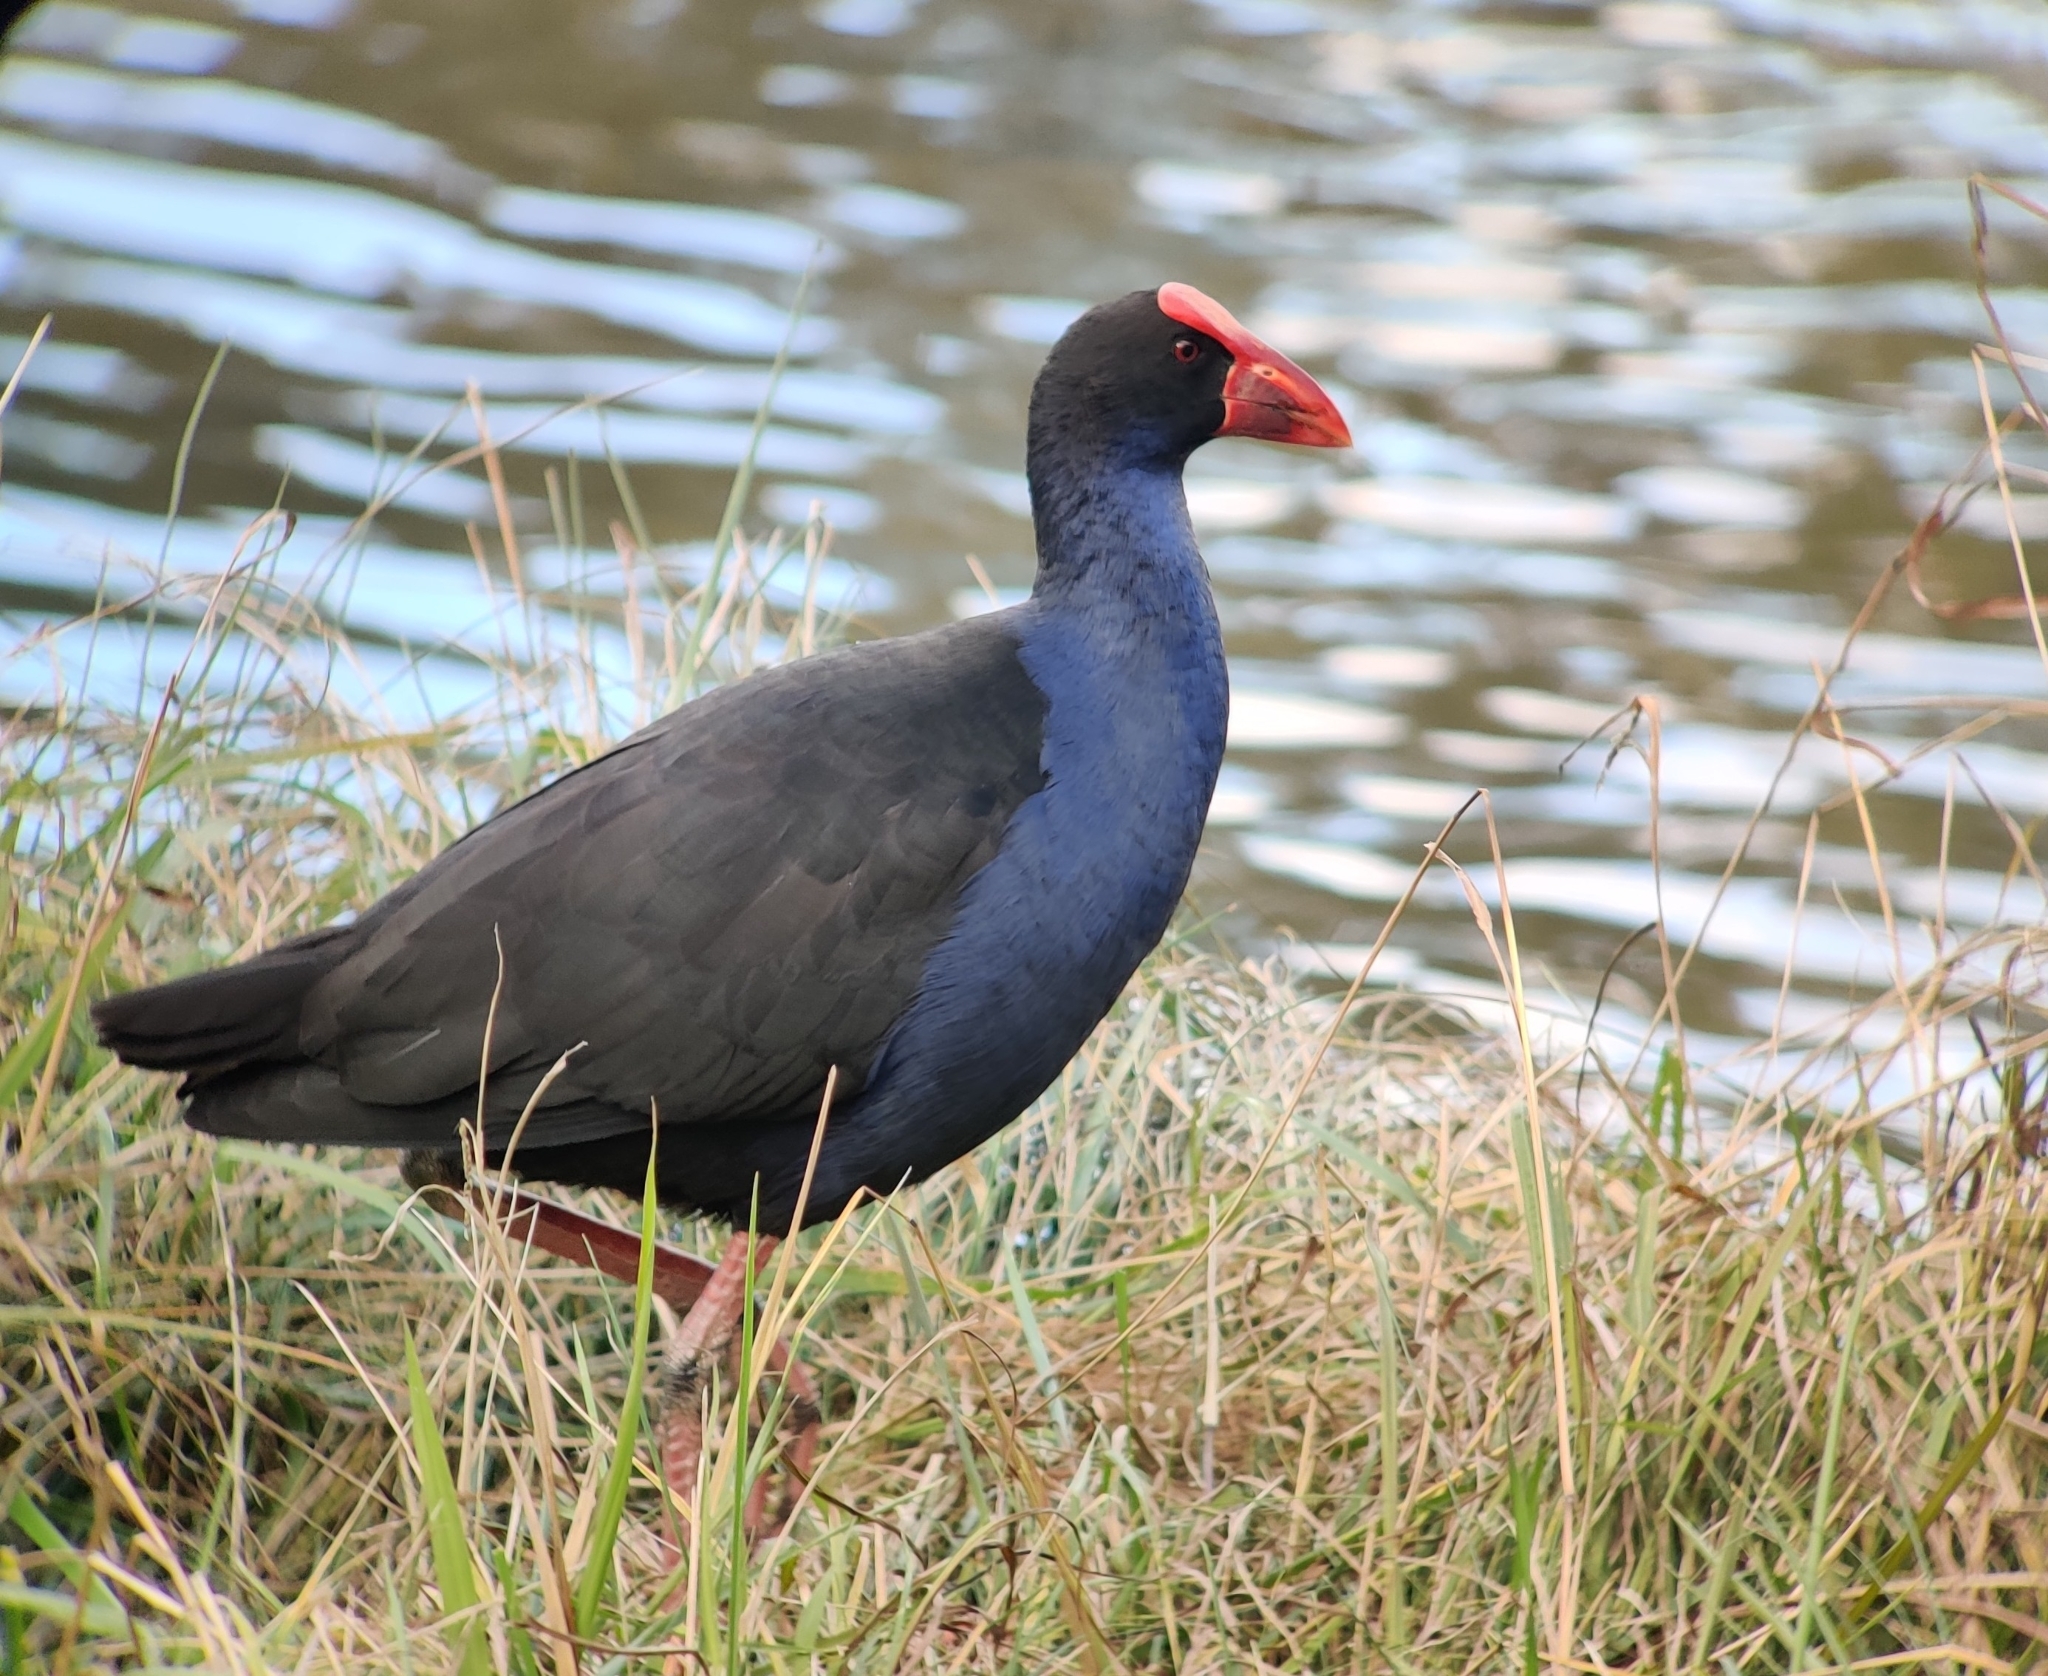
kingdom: Animalia
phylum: Chordata
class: Aves
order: Gruiformes
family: Rallidae
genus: Porphyrio
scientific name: Porphyrio melanotus
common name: Australasian swamphen
